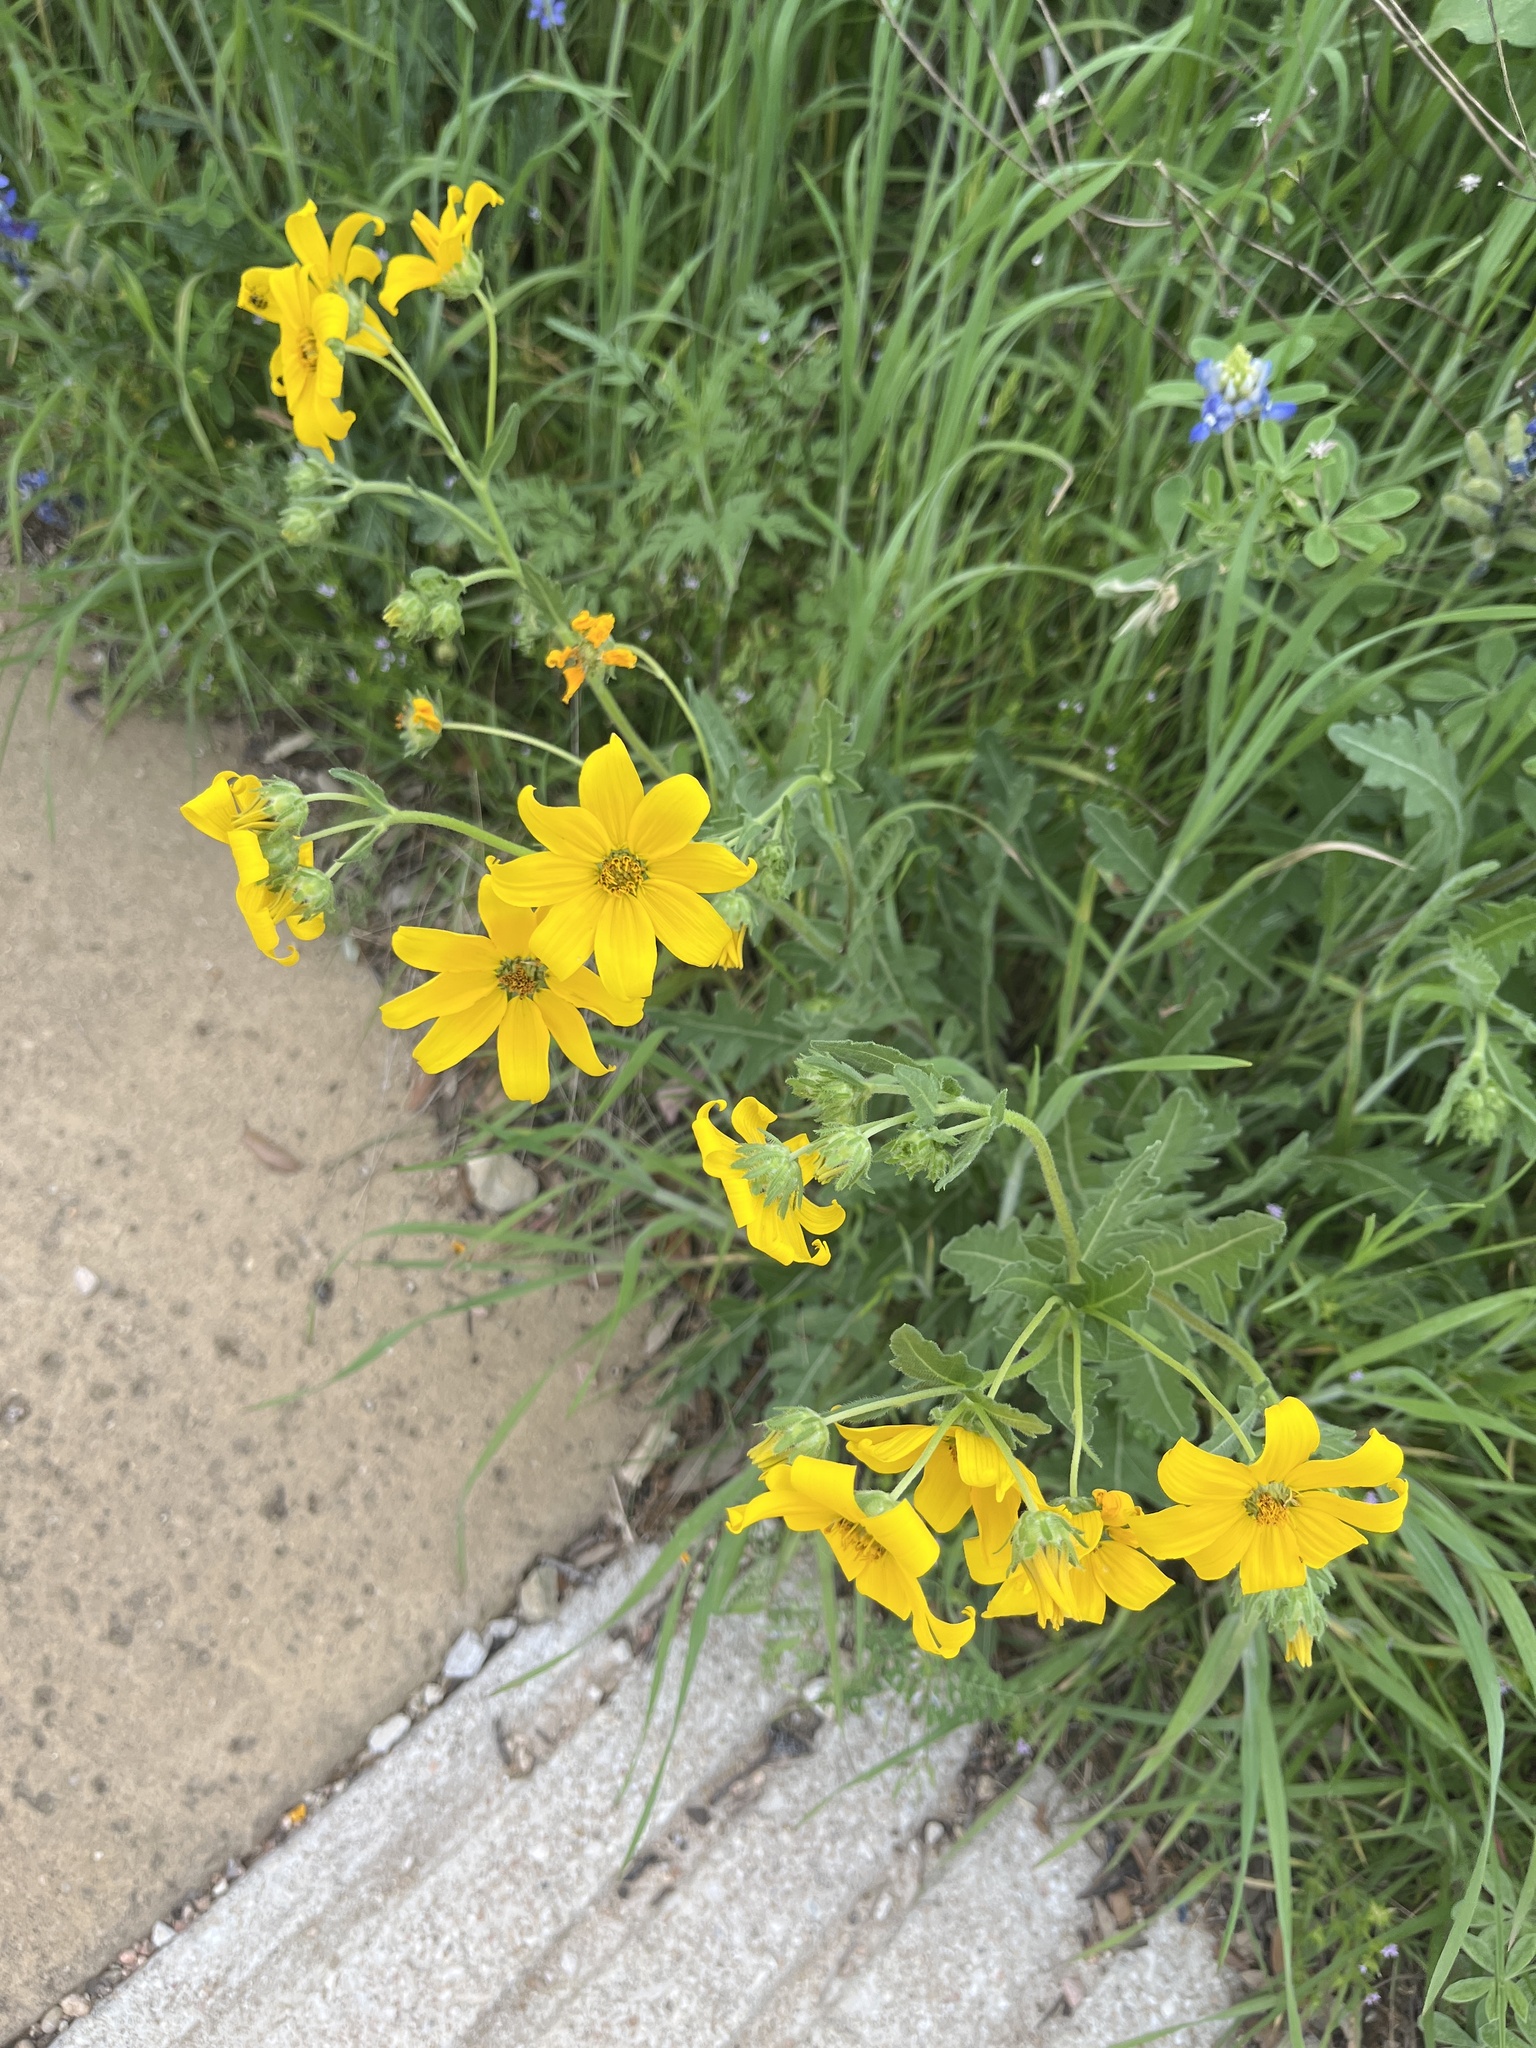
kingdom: Plantae
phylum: Tracheophyta
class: Magnoliopsida
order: Asterales
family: Asteraceae
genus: Engelmannia
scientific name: Engelmannia peristenia
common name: Engelmann's daisy
